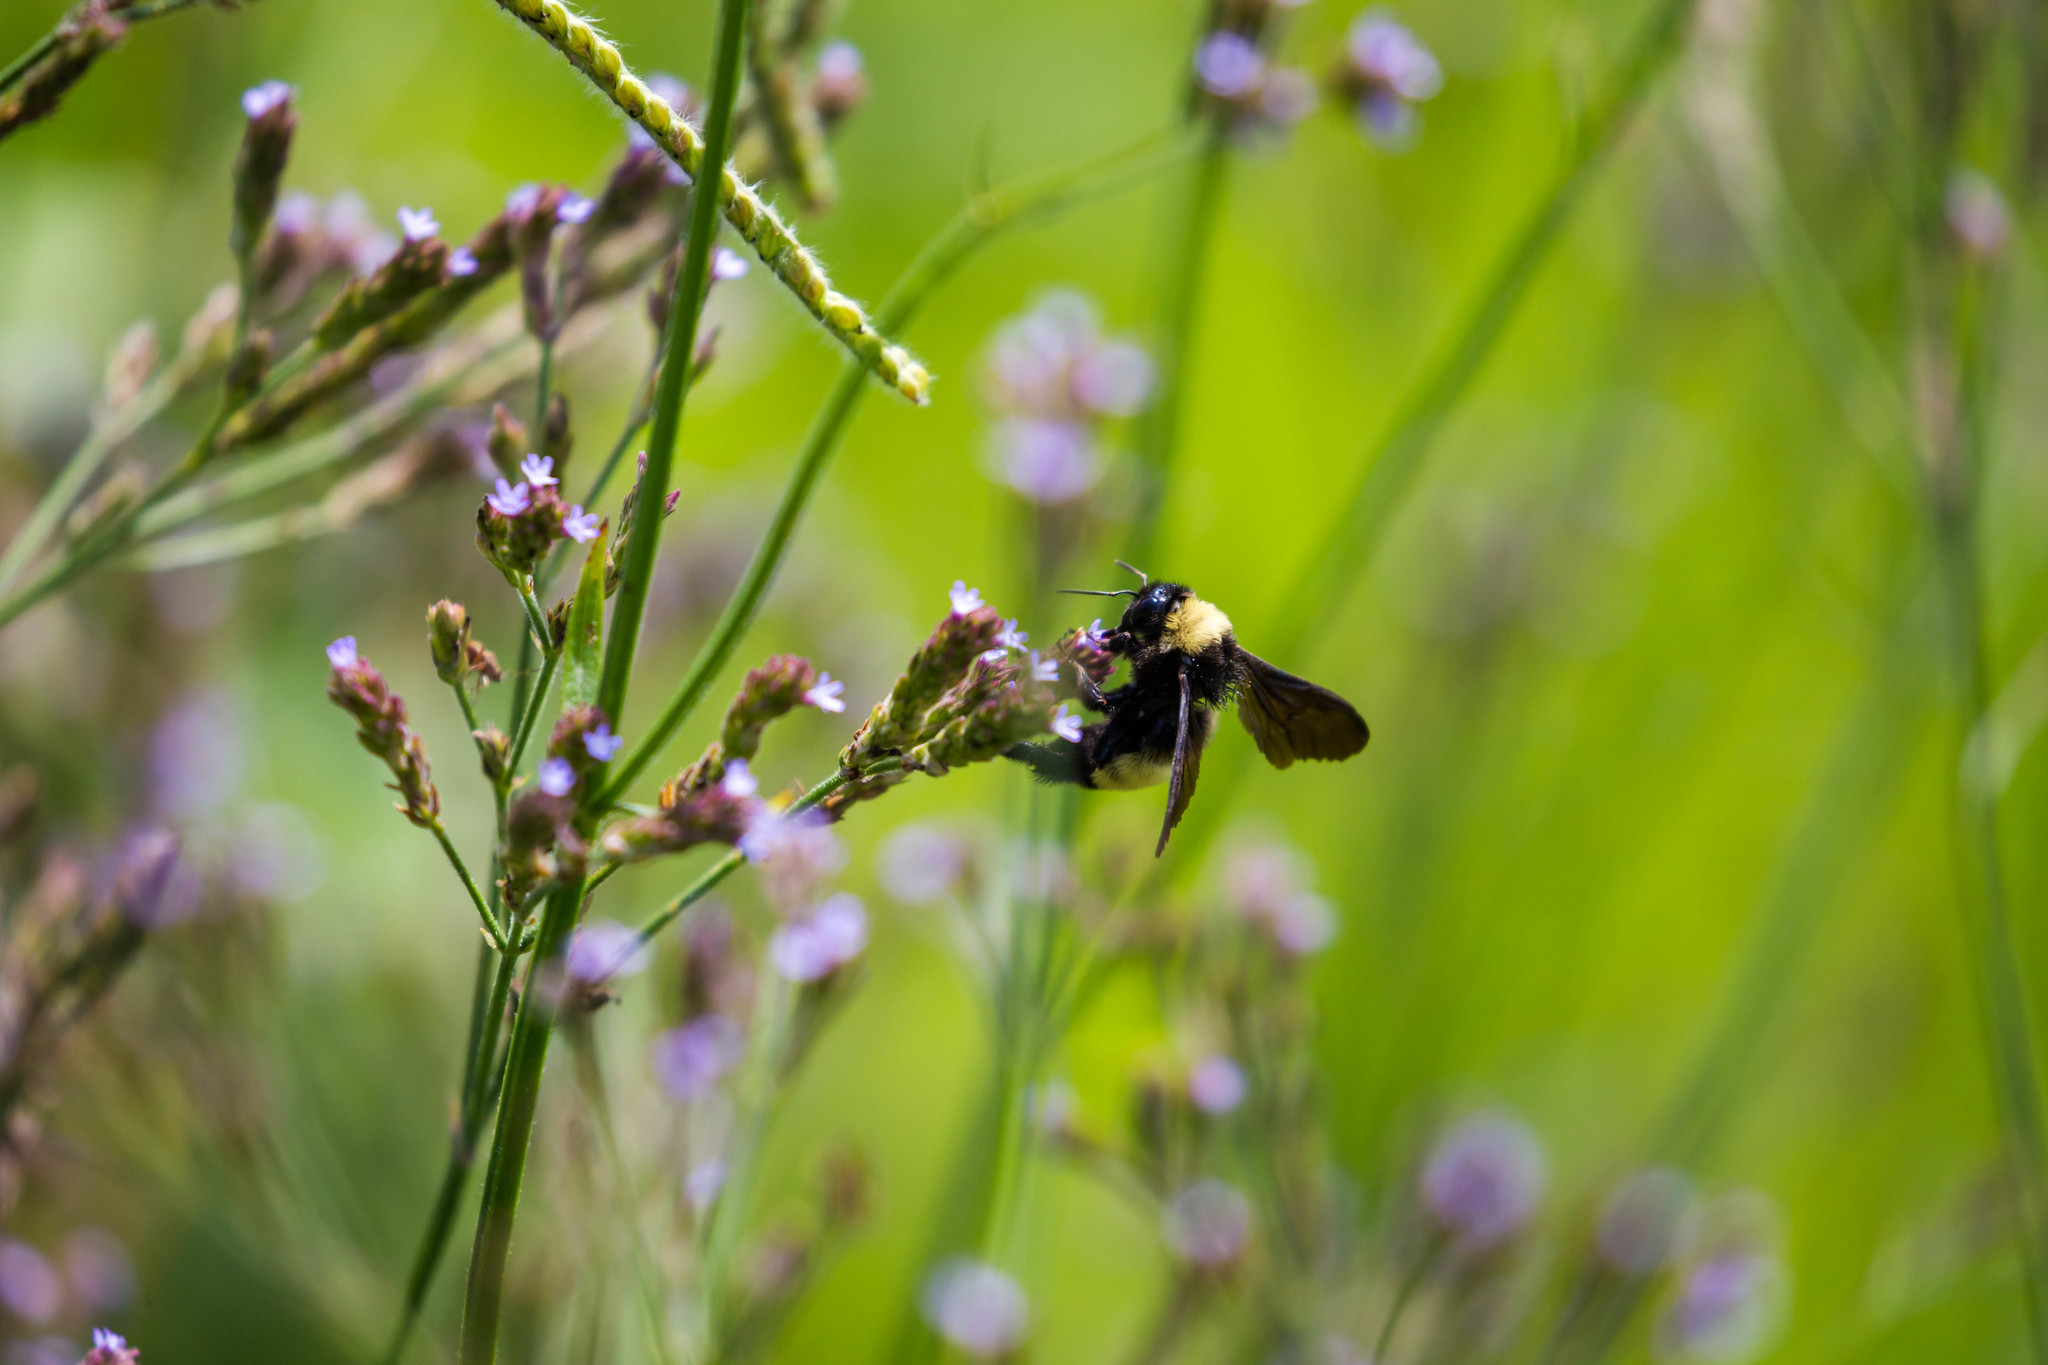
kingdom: Animalia
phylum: Arthropoda
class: Insecta
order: Hymenoptera
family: Apidae
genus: Bombus
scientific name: Bombus pensylvanicus
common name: Bumble bee
